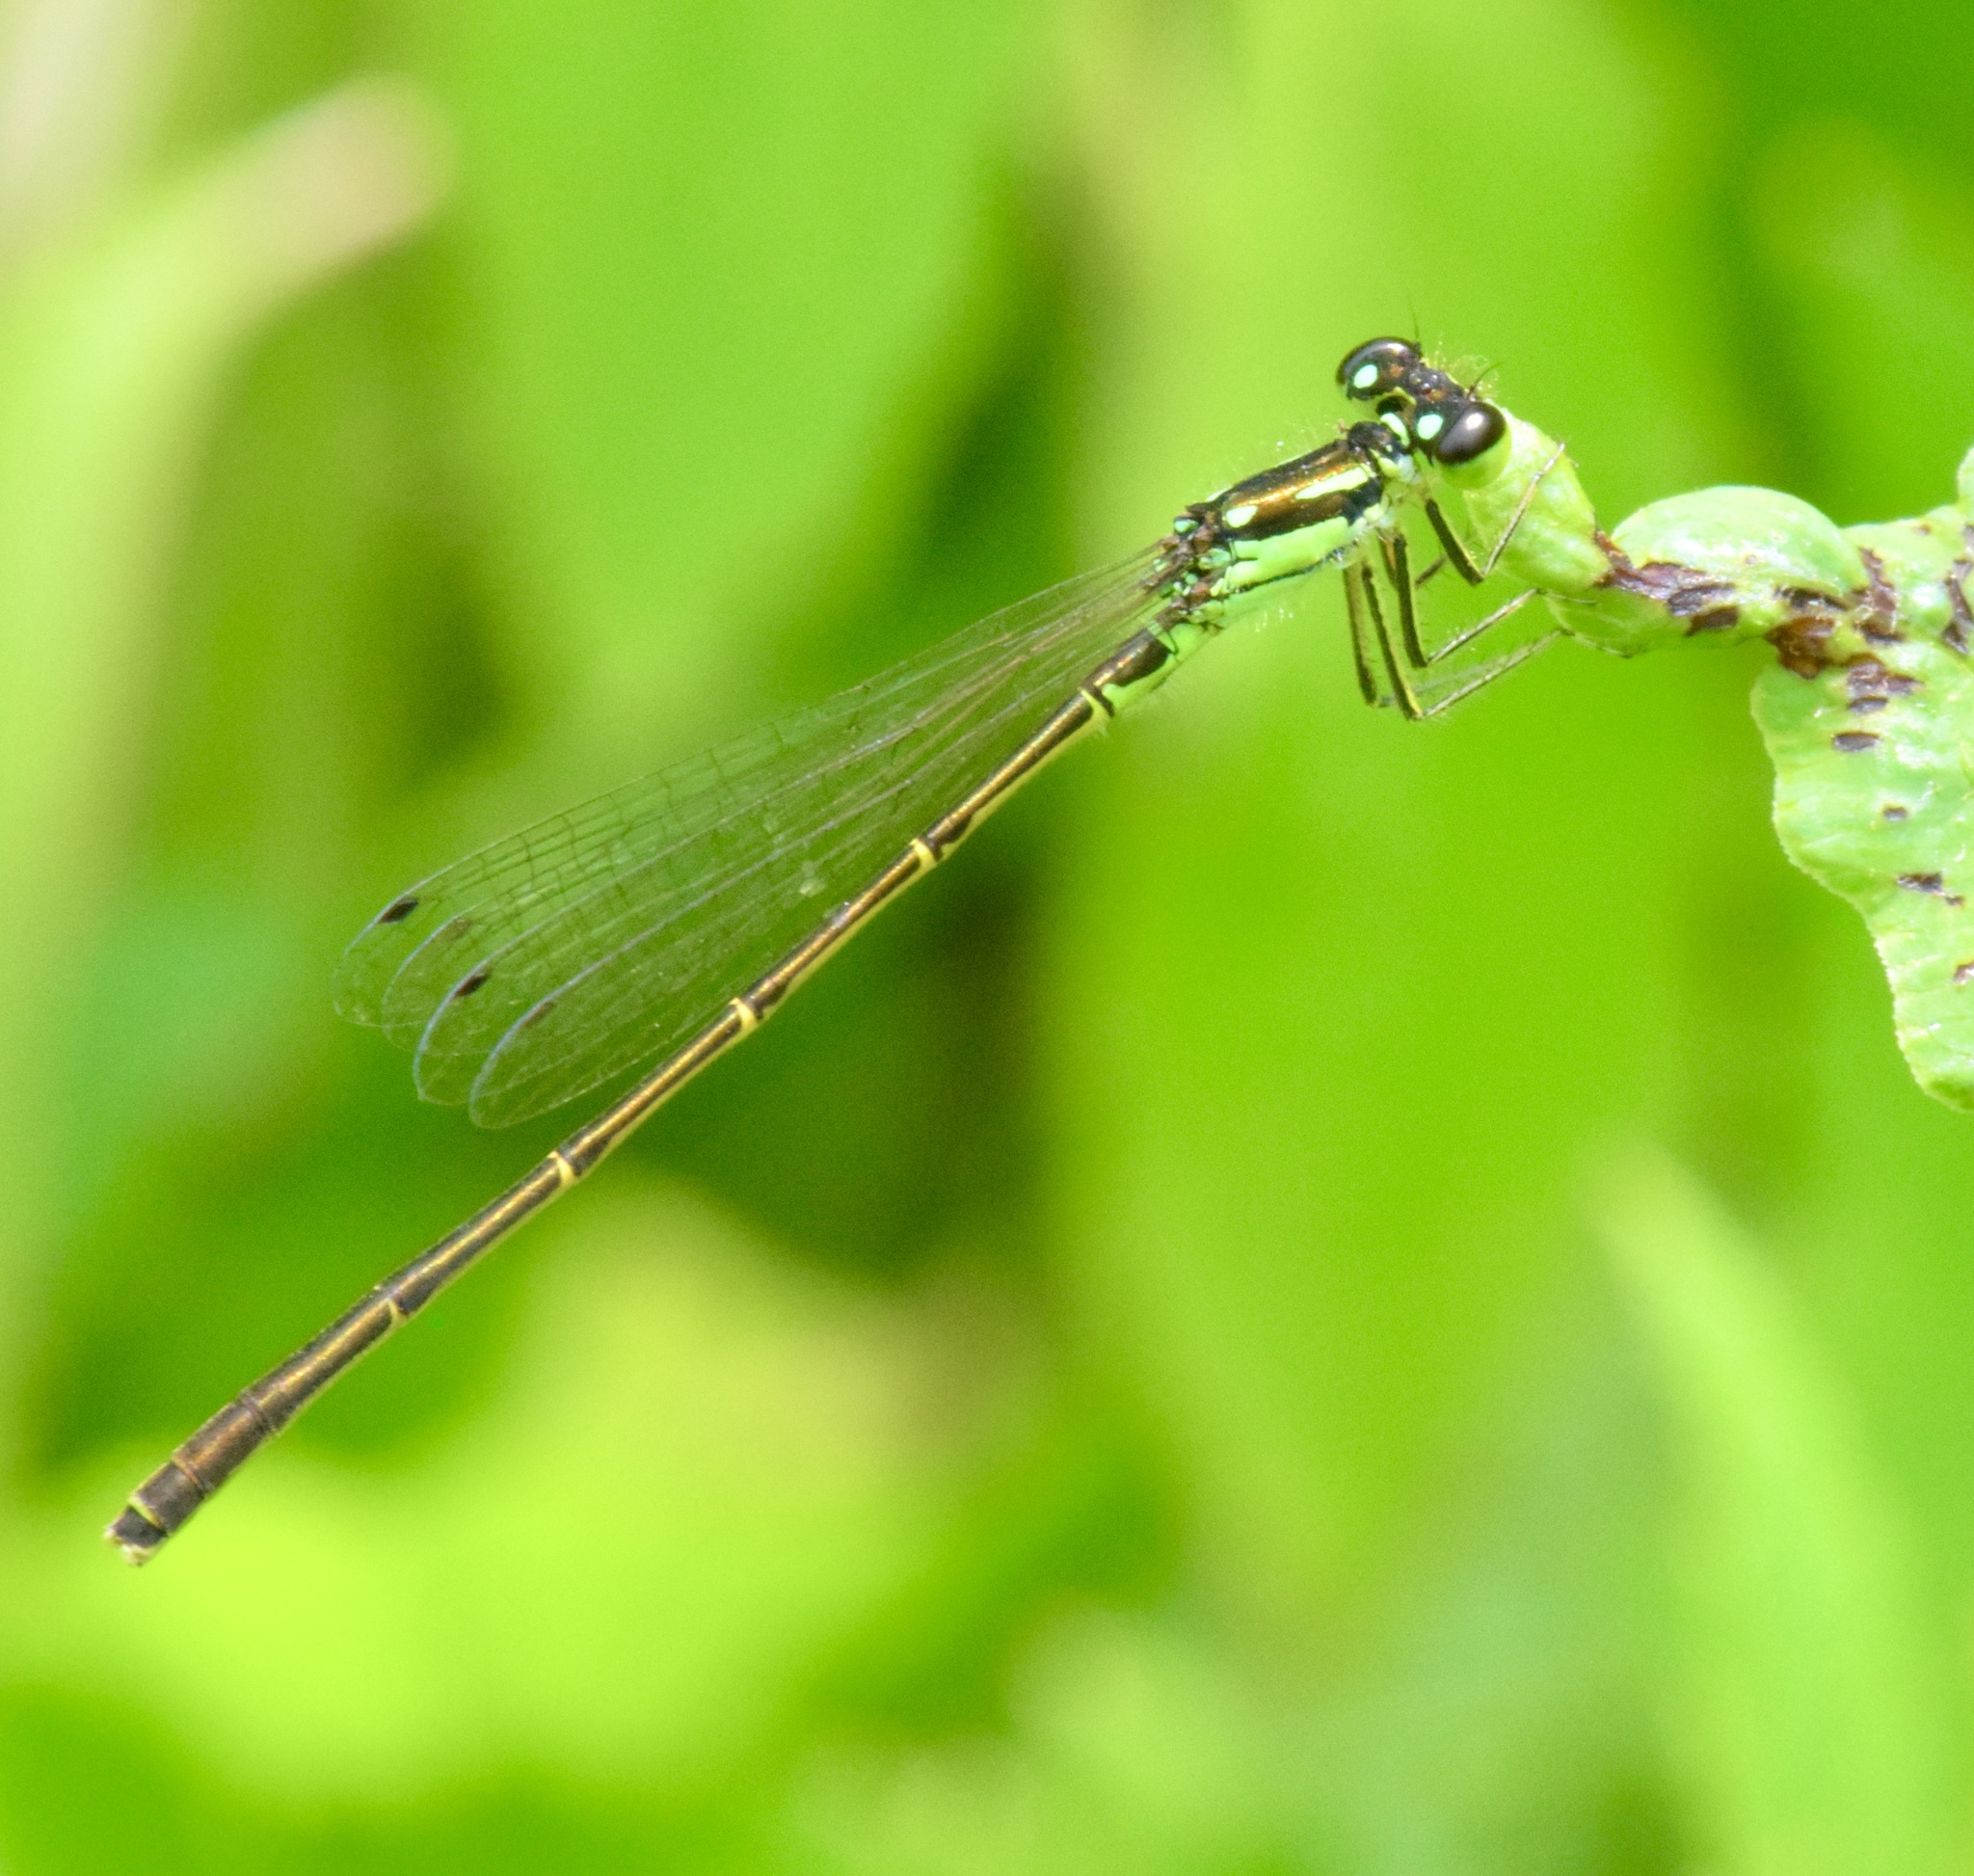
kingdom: Animalia
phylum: Arthropoda
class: Insecta
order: Odonata
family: Coenagrionidae
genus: Ischnura
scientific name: Ischnura posita
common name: Fragile forktail
